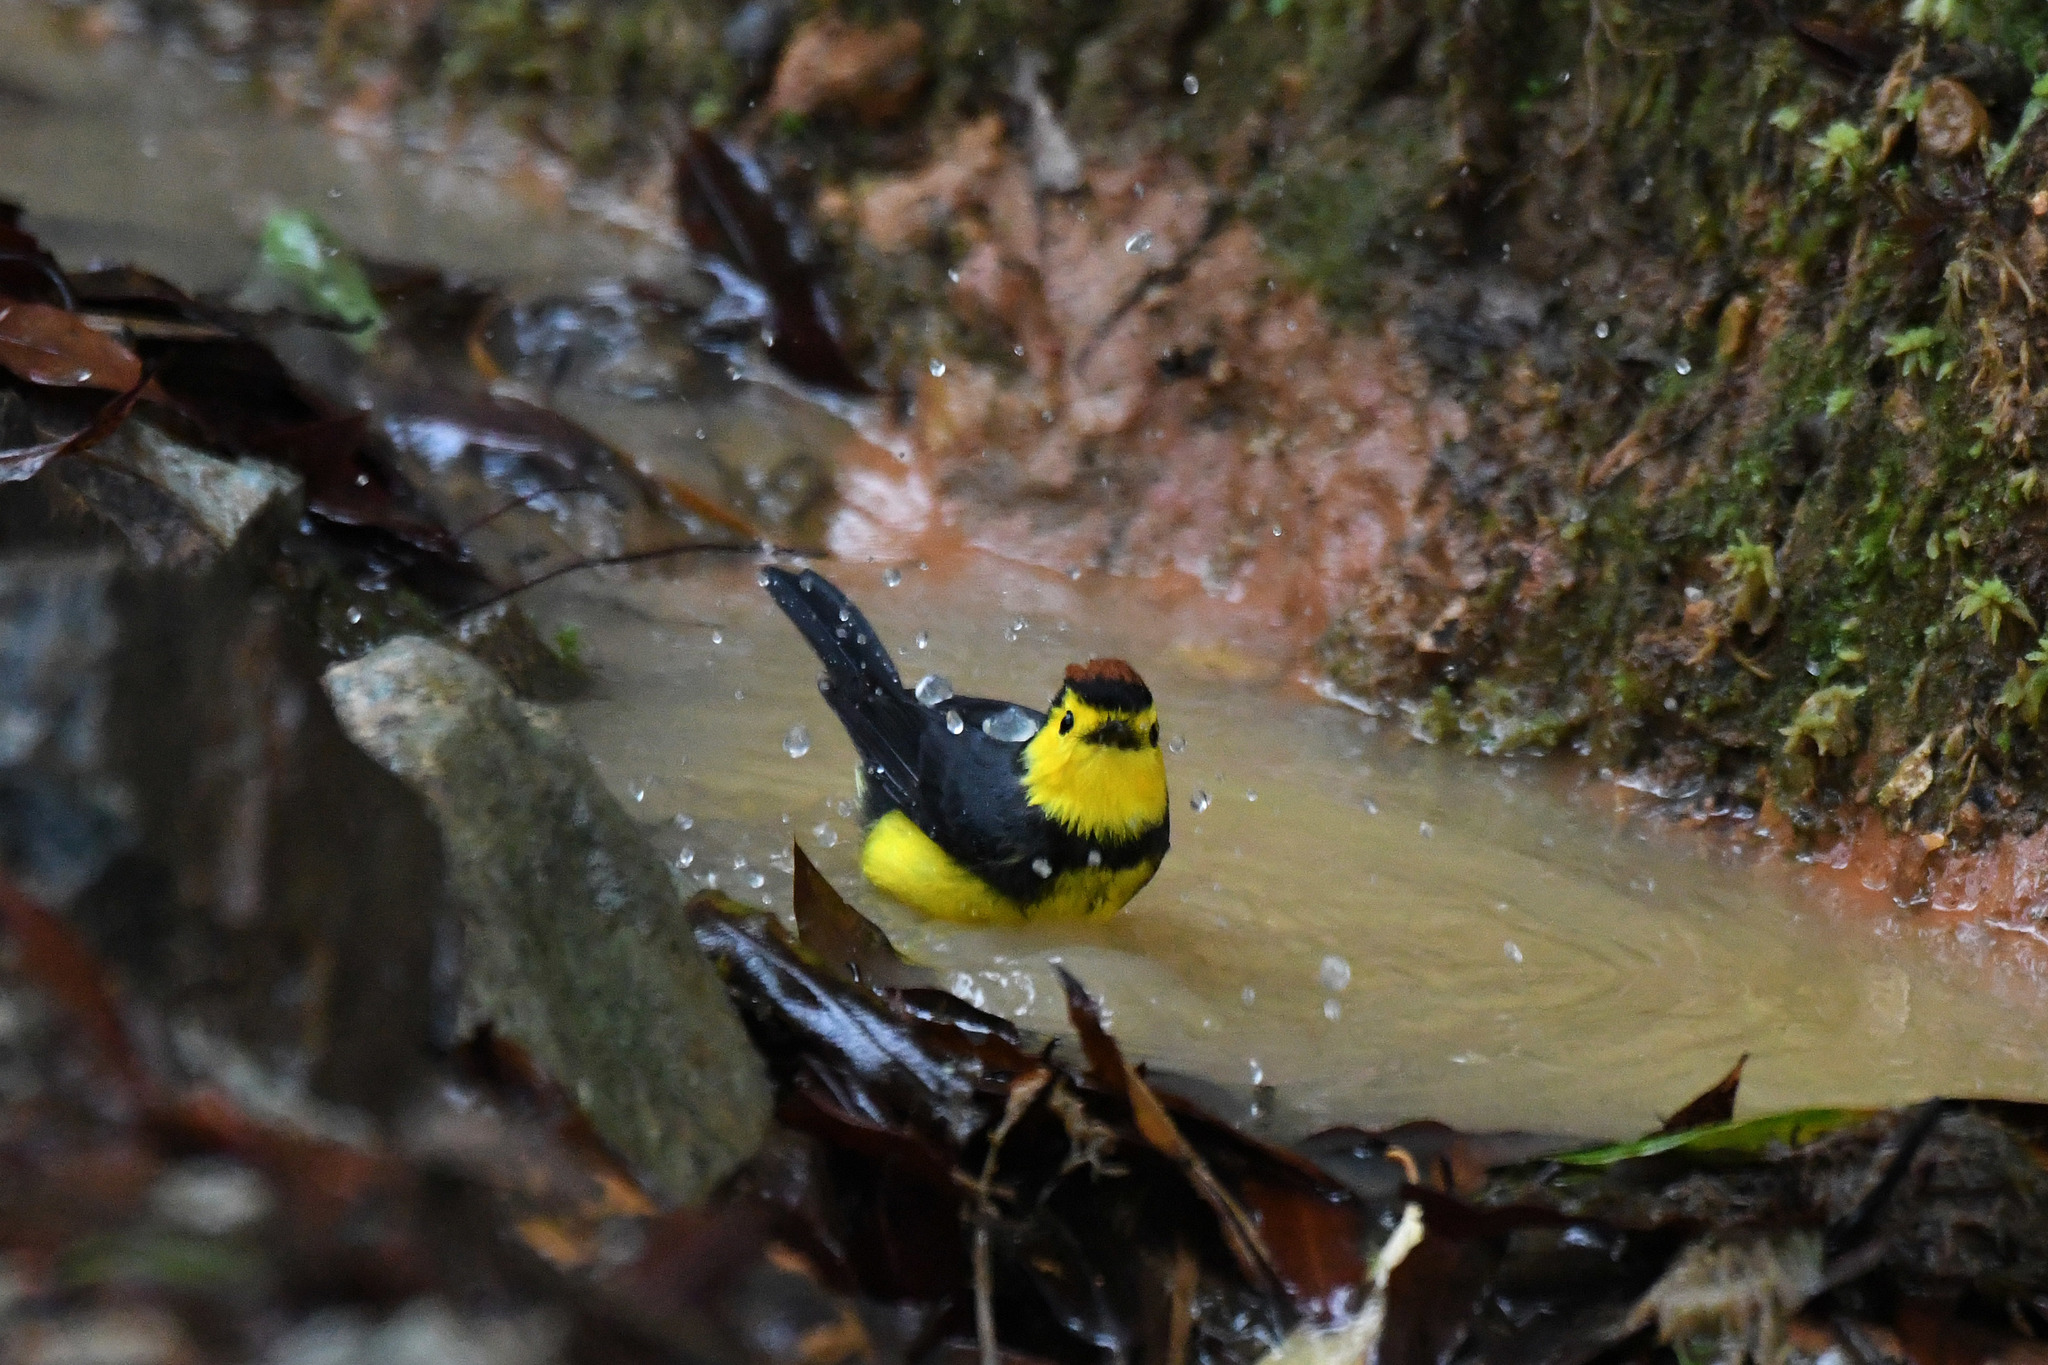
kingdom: Animalia
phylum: Chordata
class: Aves
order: Passeriformes
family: Parulidae
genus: Myioborus
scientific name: Myioborus torquatus
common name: Collared whitestart
